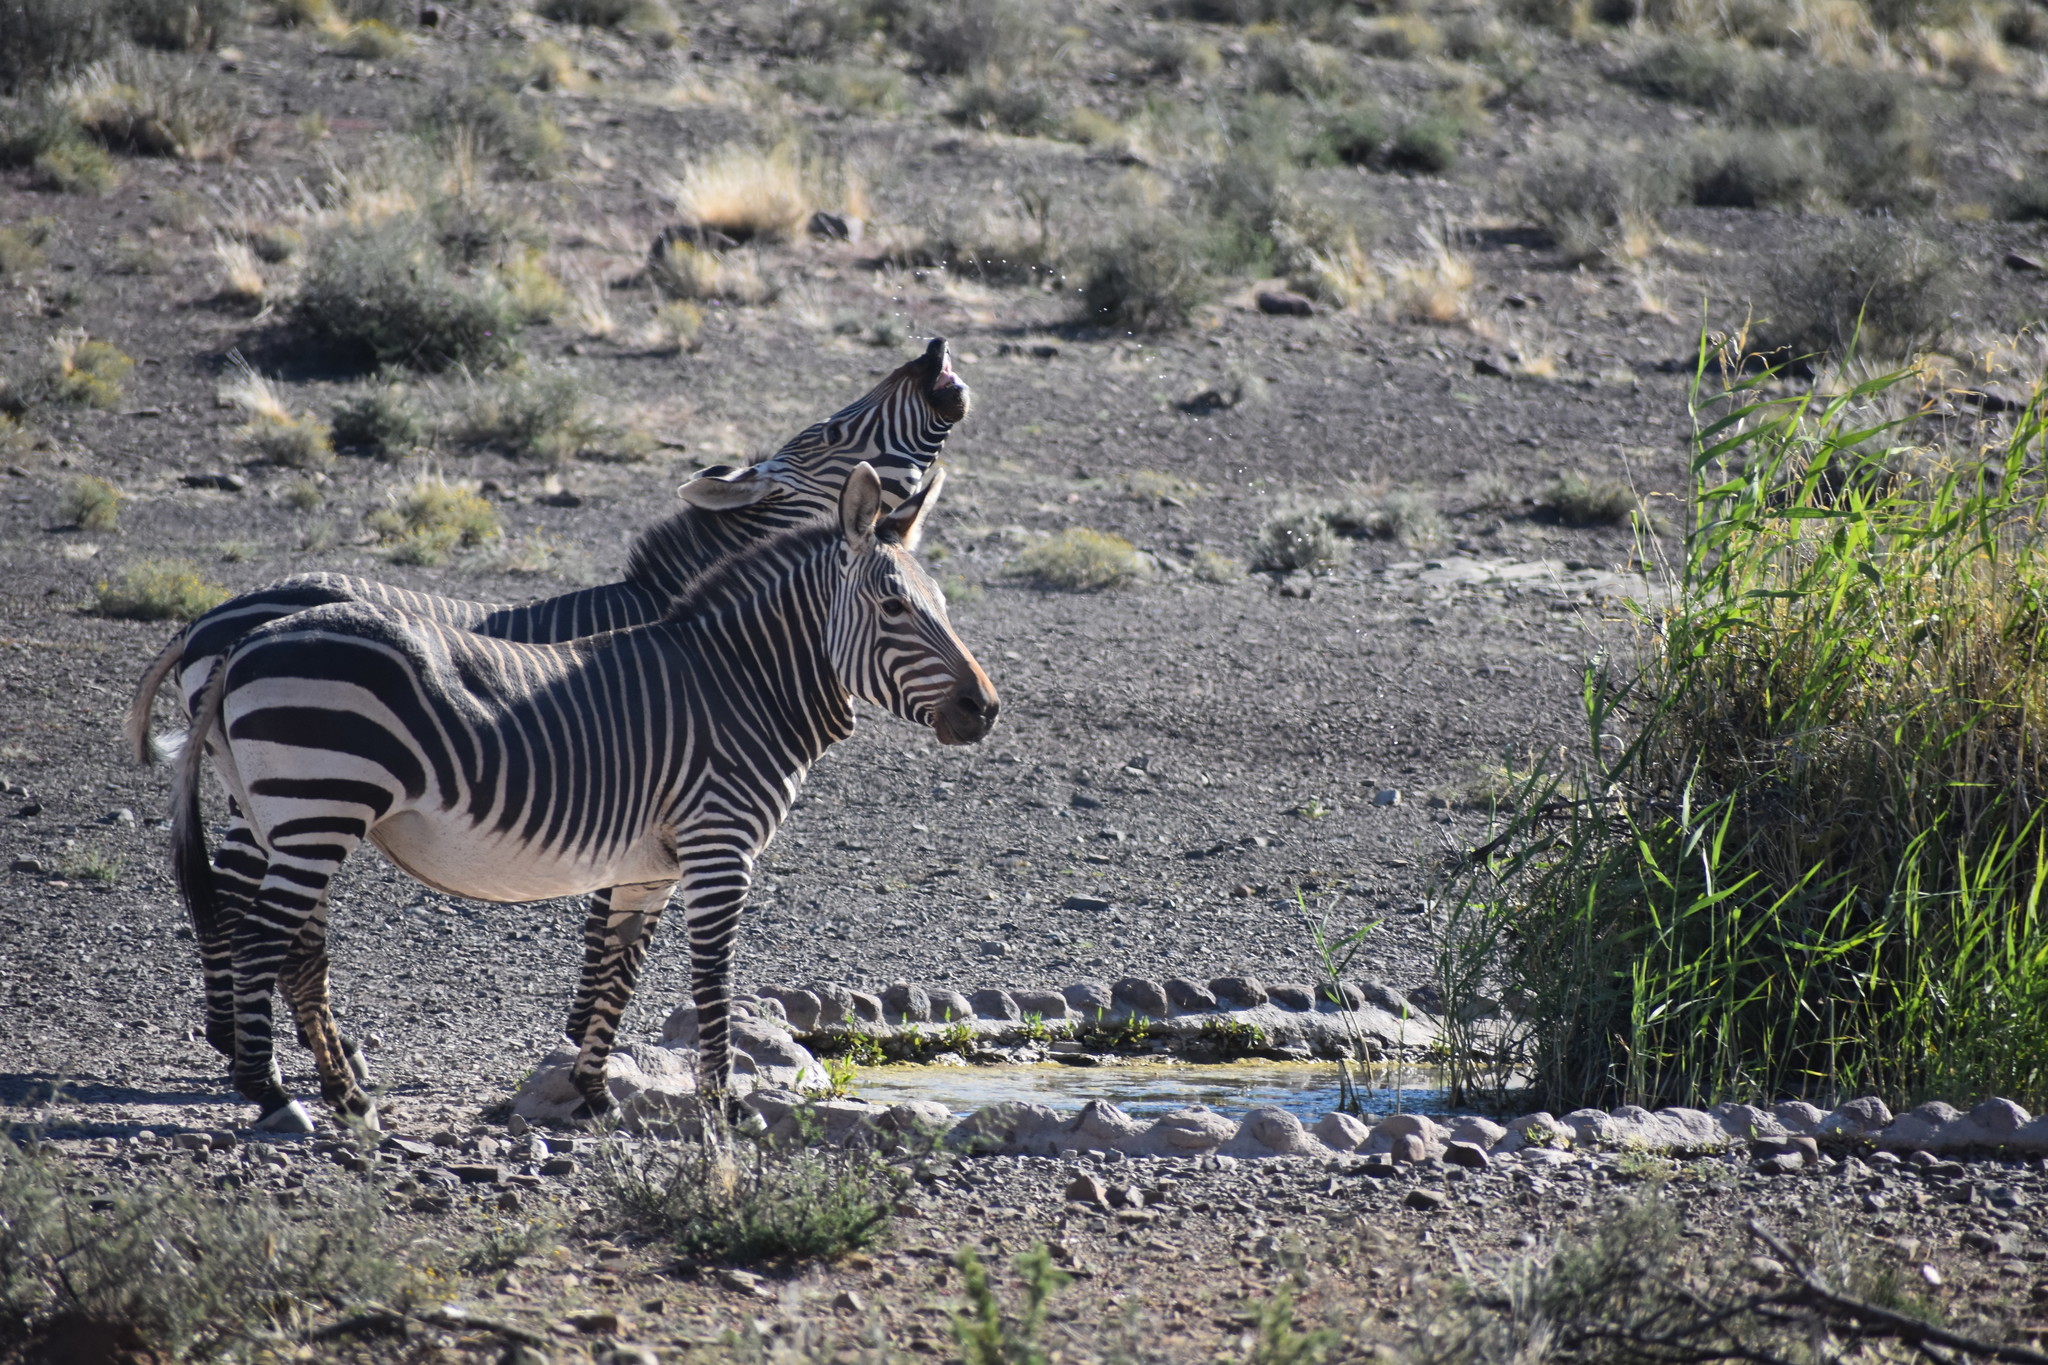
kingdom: Animalia
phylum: Chordata
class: Mammalia
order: Perissodactyla
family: Equidae
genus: Equus
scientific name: Equus zebra
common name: Mountain zebra
